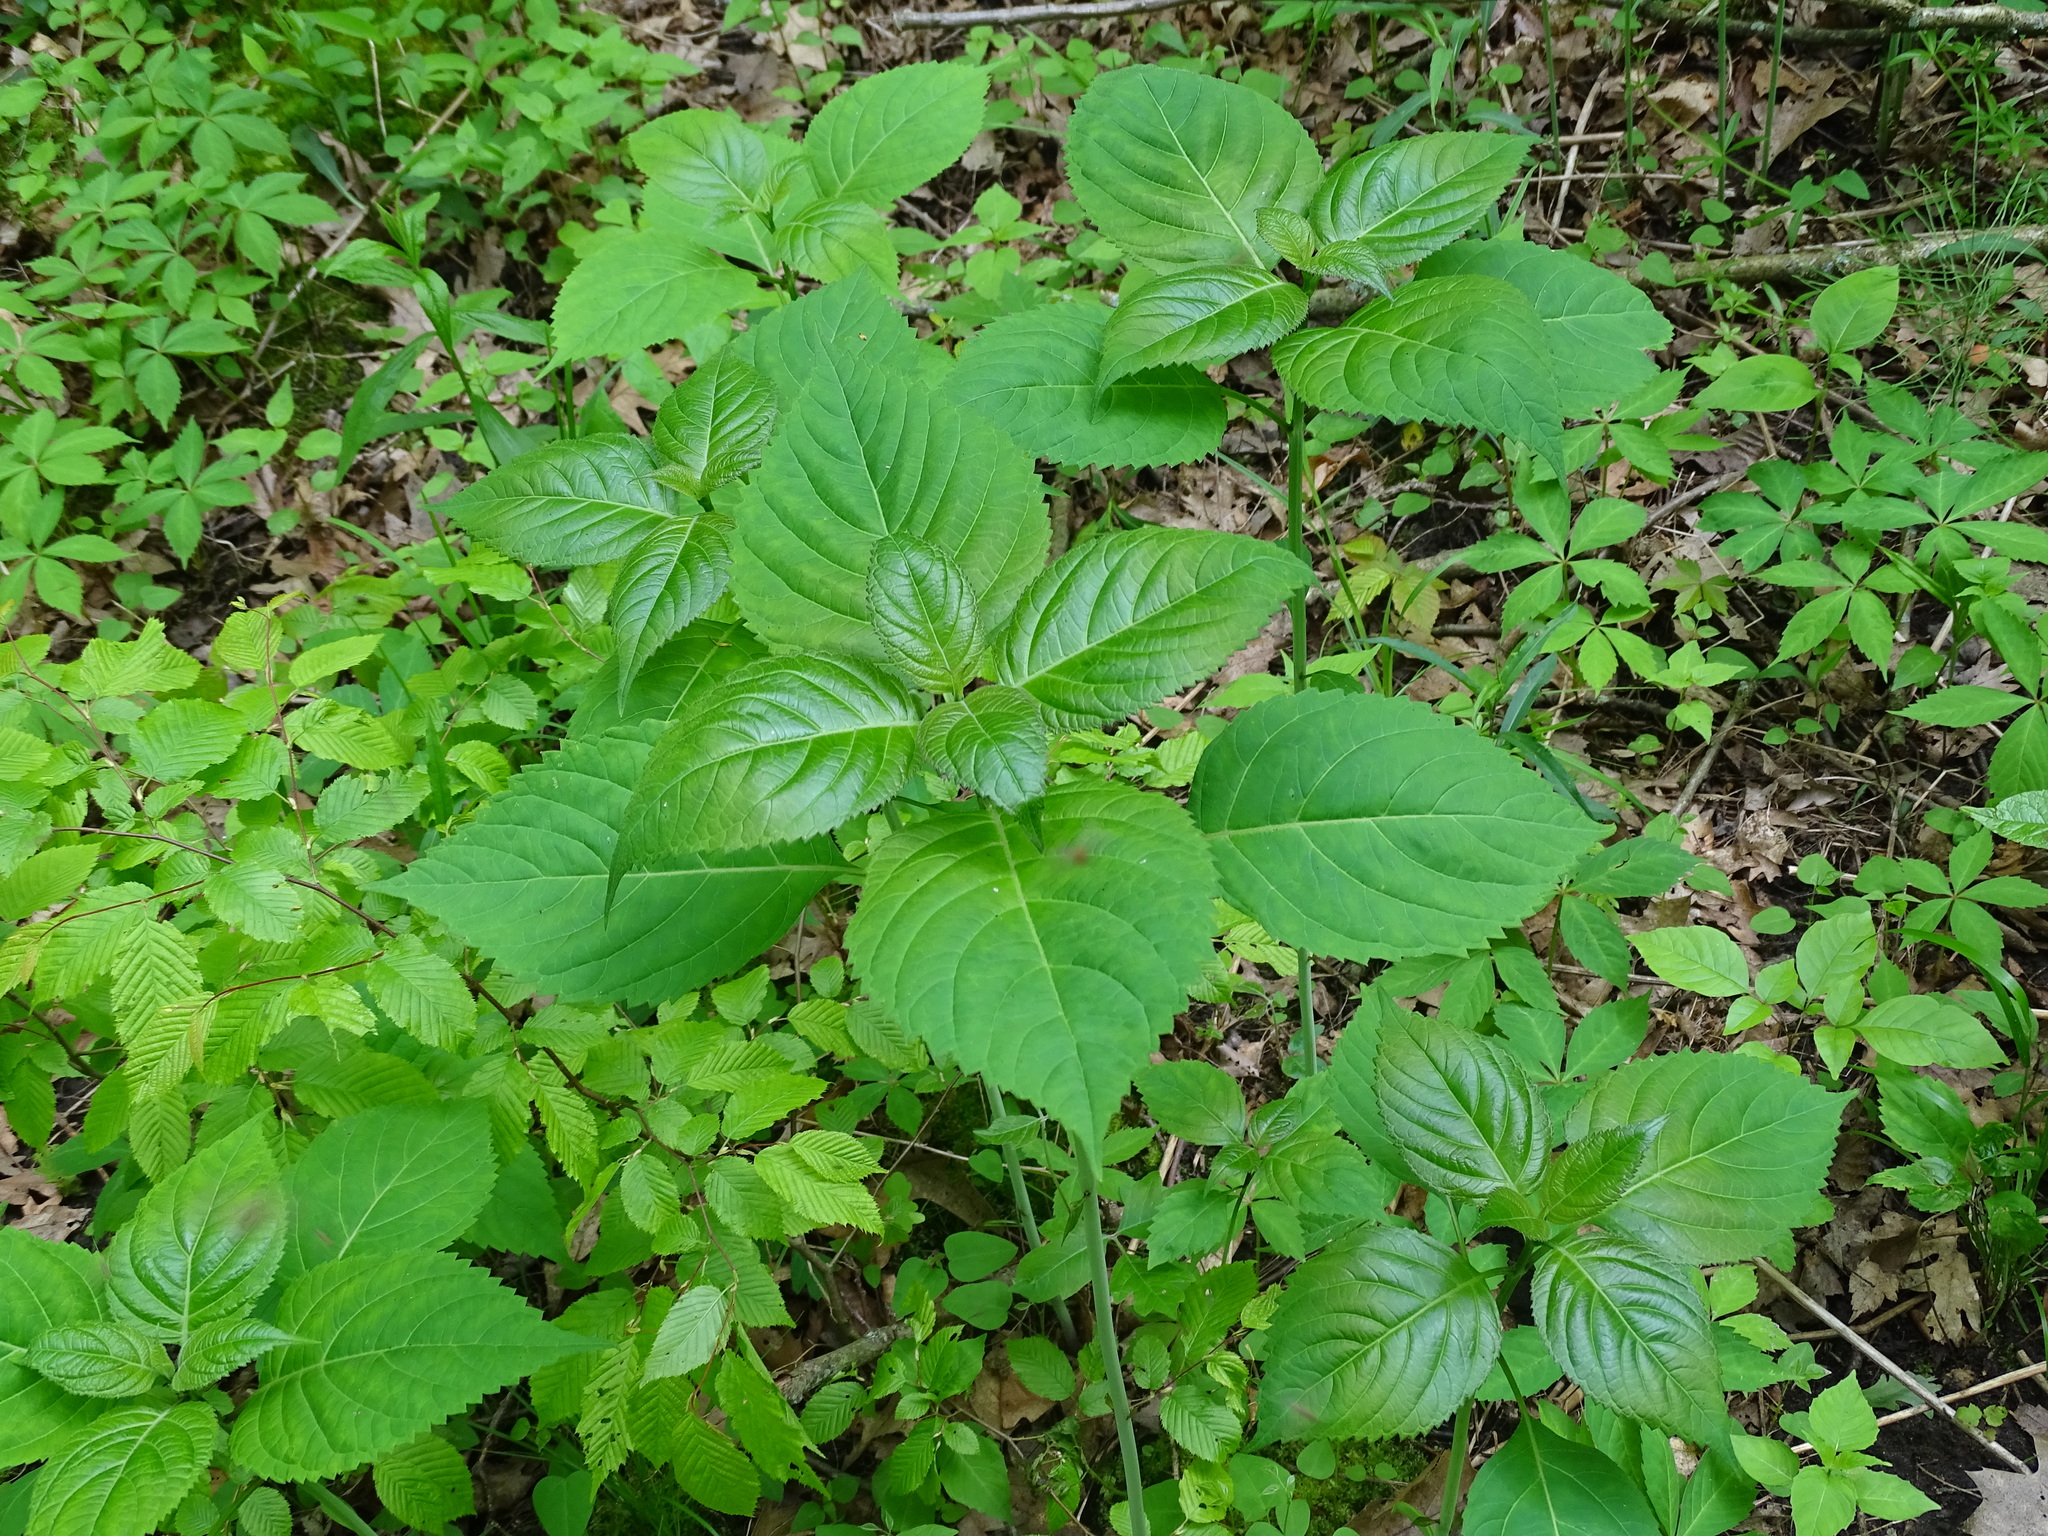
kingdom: Plantae
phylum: Tracheophyta
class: Magnoliopsida
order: Lamiales
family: Lamiaceae
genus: Collinsonia
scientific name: Collinsonia canadensis
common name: Northern horsebalm
